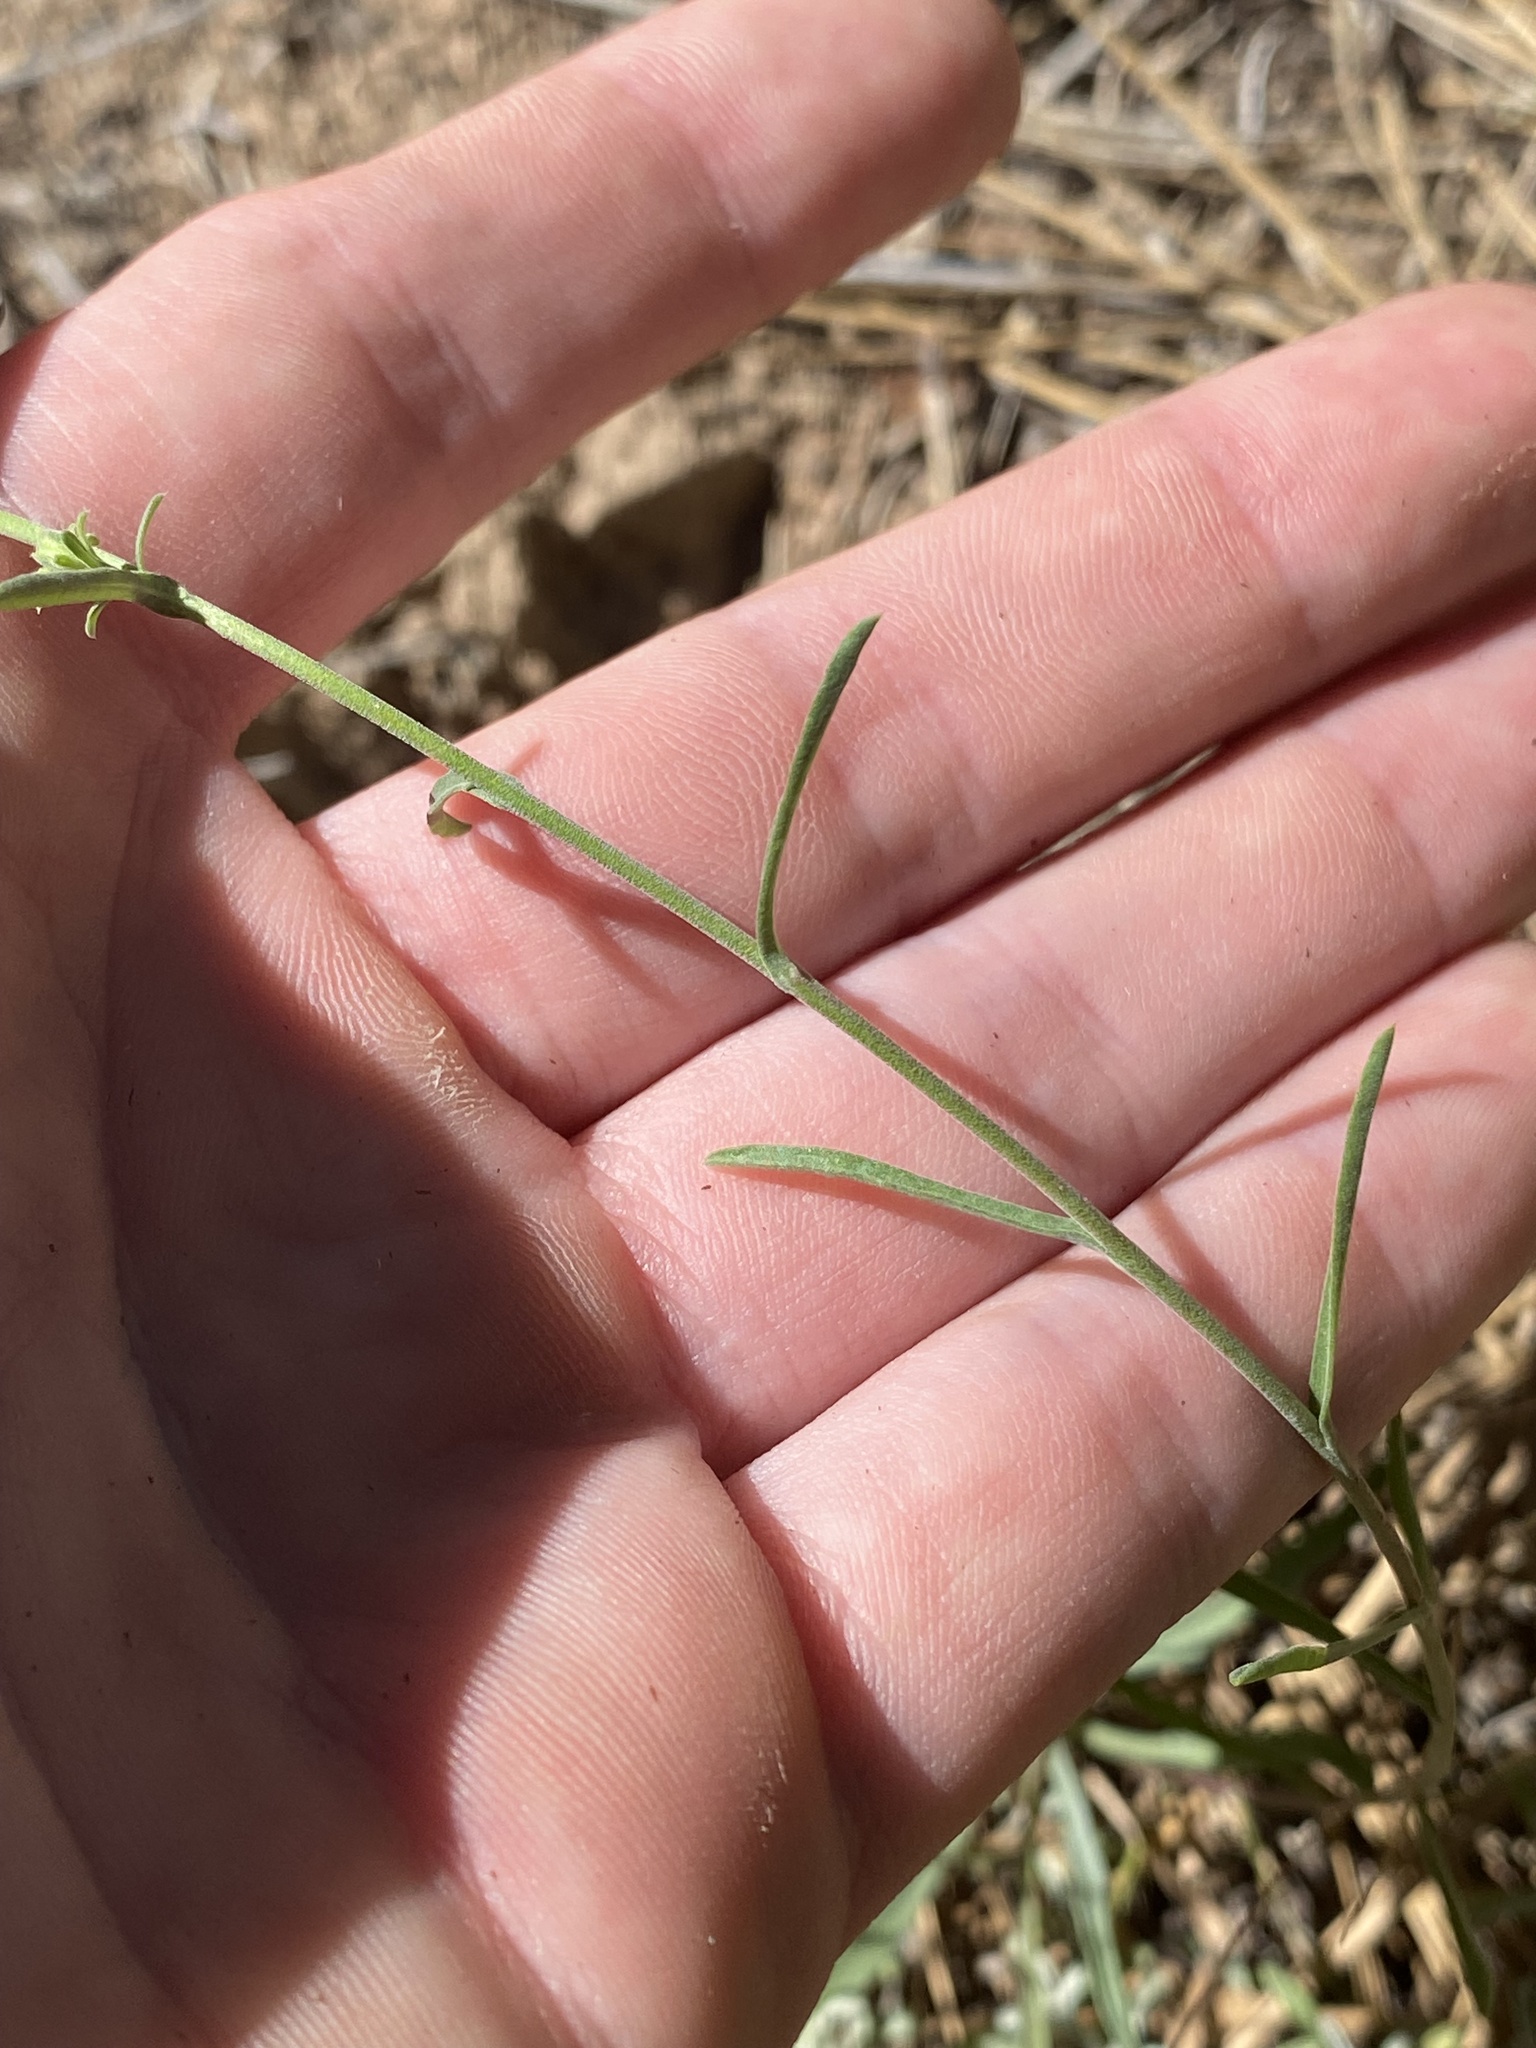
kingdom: Plantae
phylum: Tracheophyta
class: Magnoliopsida
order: Asterales
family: Asteraceae
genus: Dieteria
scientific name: Dieteria canescens
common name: Hoary-aster
